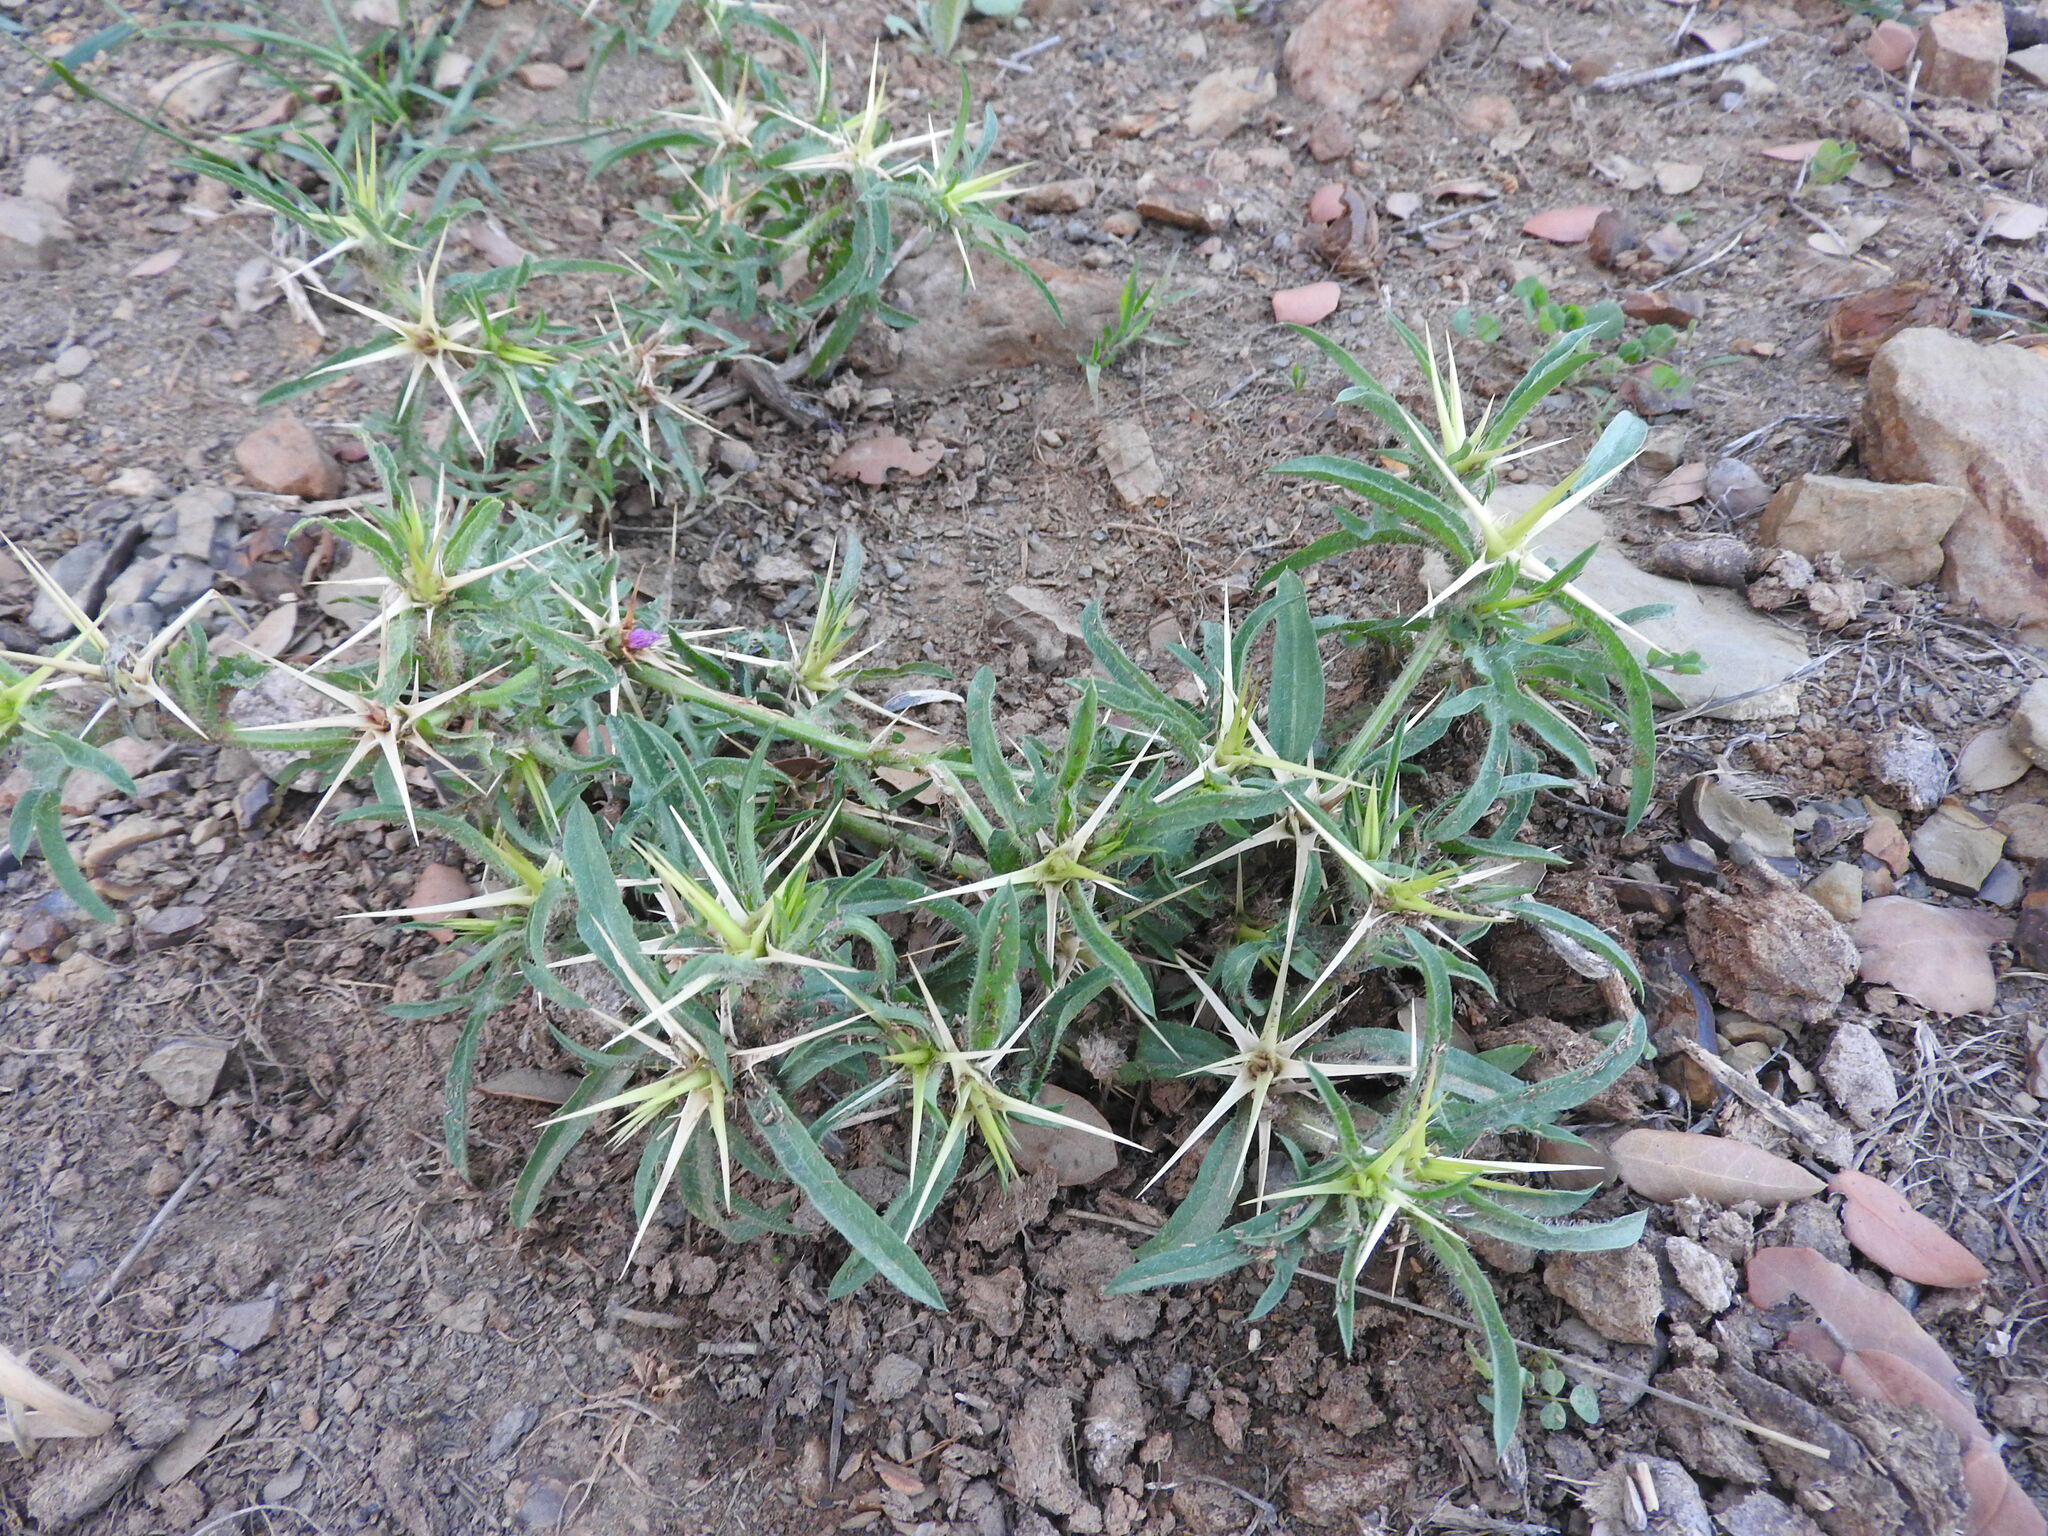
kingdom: Plantae
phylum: Tracheophyta
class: Magnoliopsida
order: Asterales
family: Asteraceae
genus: Centaurea
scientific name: Centaurea calcitrapa
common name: Red star-thistle
